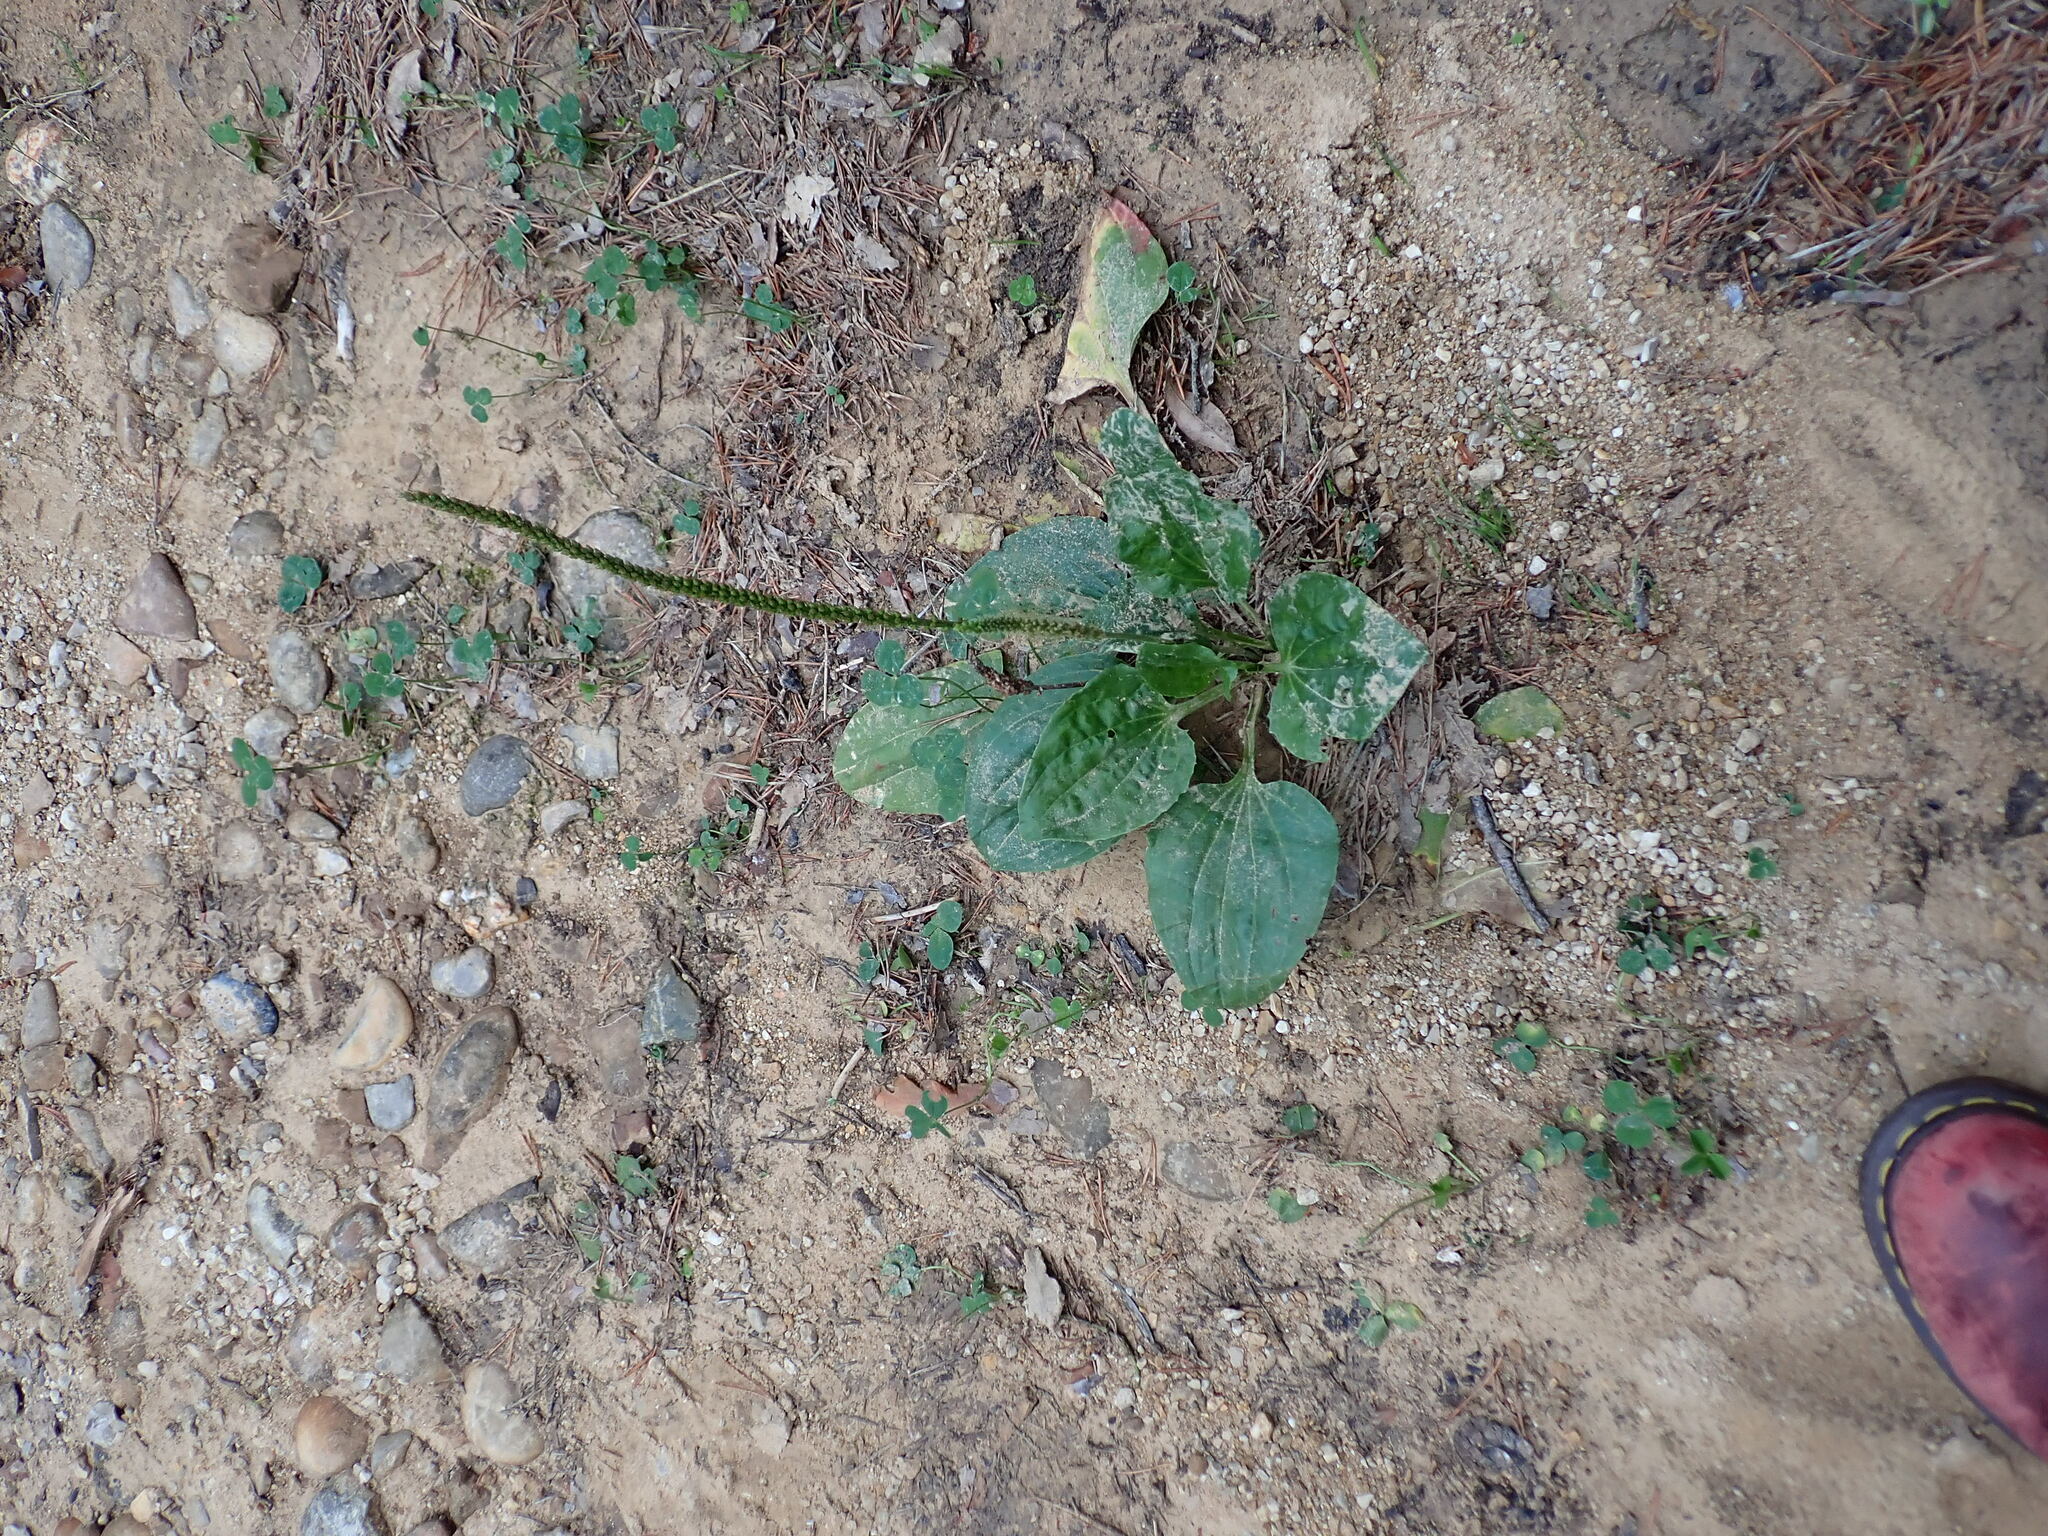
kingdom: Plantae
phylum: Tracheophyta
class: Magnoliopsida
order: Lamiales
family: Plantaginaceae
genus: Plantago
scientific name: Plantago major
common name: Common plantain
